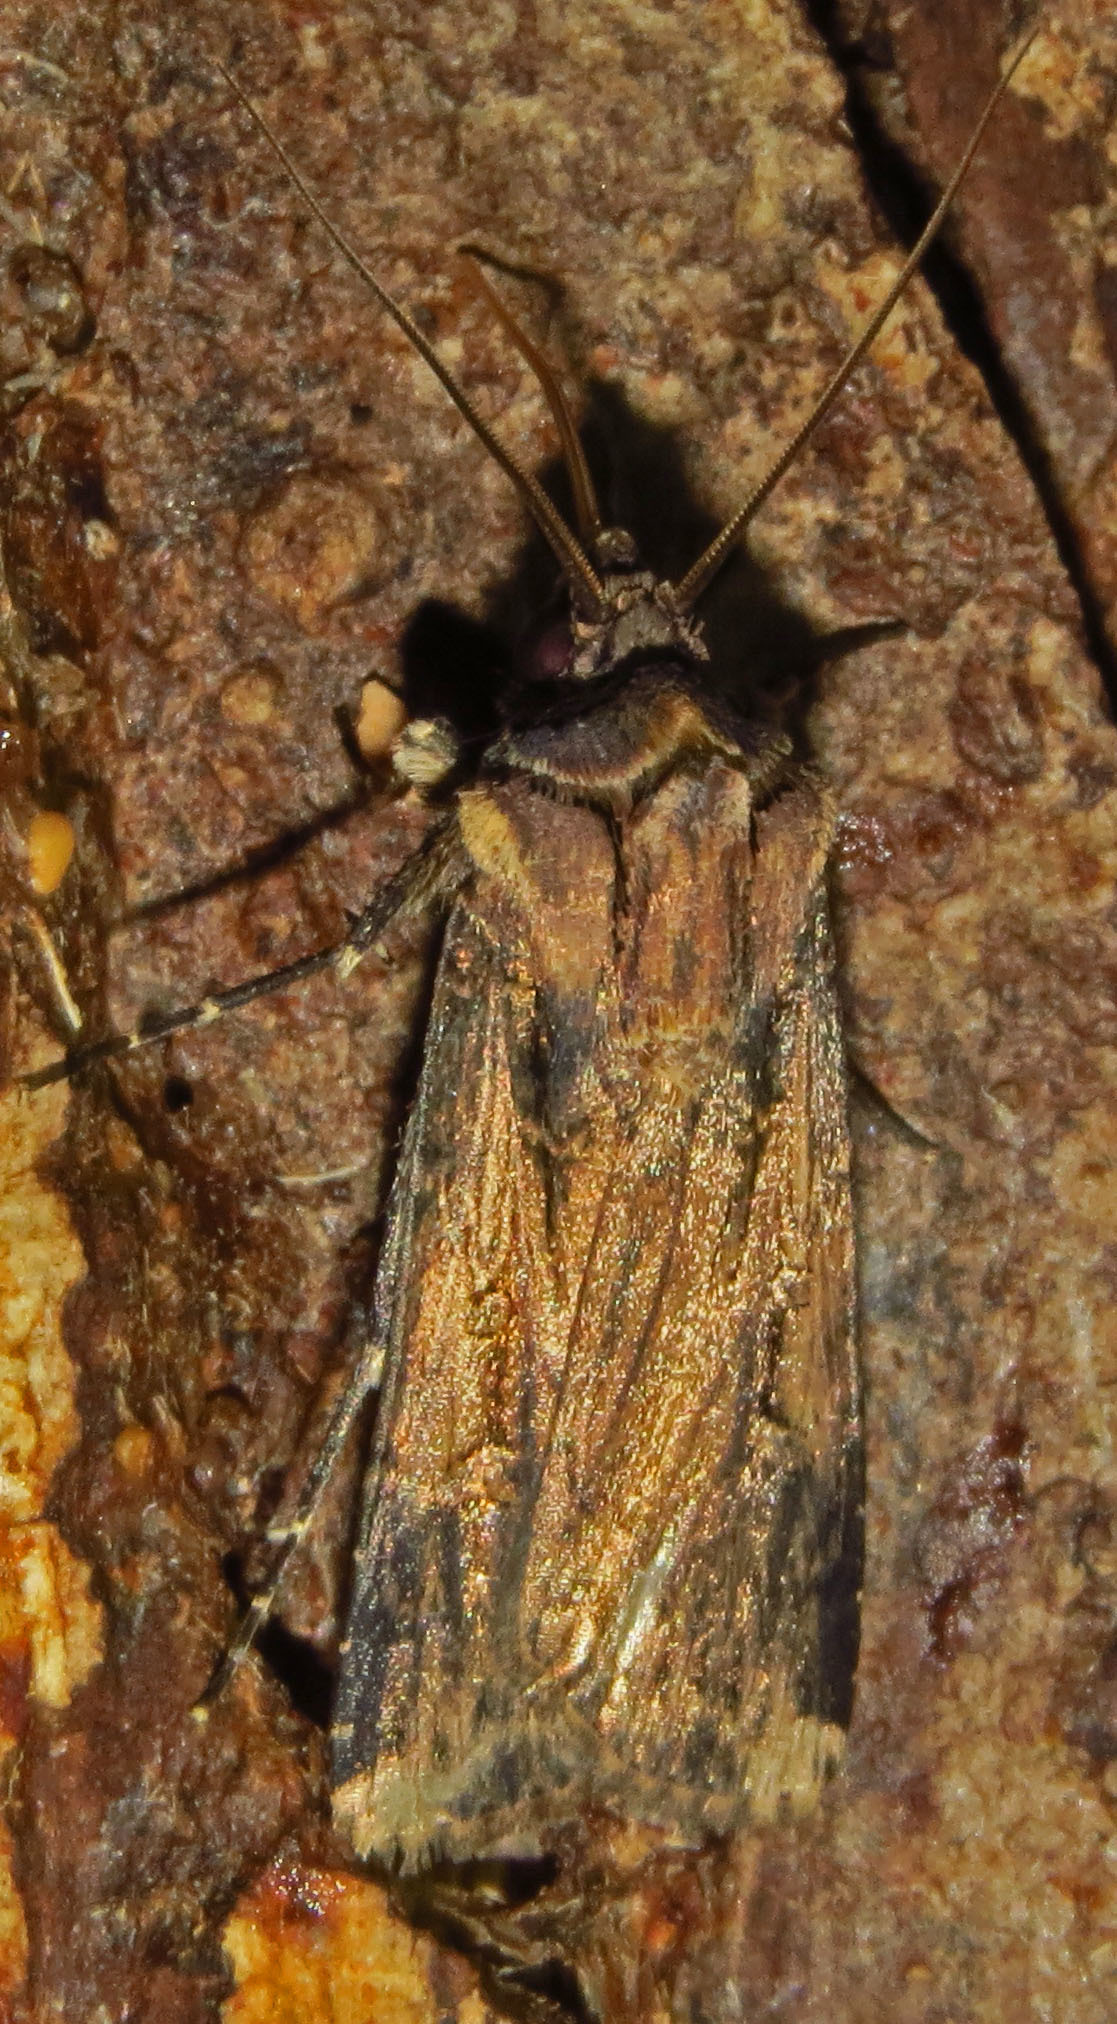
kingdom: Animalia
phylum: Arthropoda
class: Insecta
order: Lepidoptera
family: Noctuidae
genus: Feltia
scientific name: Feltia subterranea
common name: Granulate cutworm
